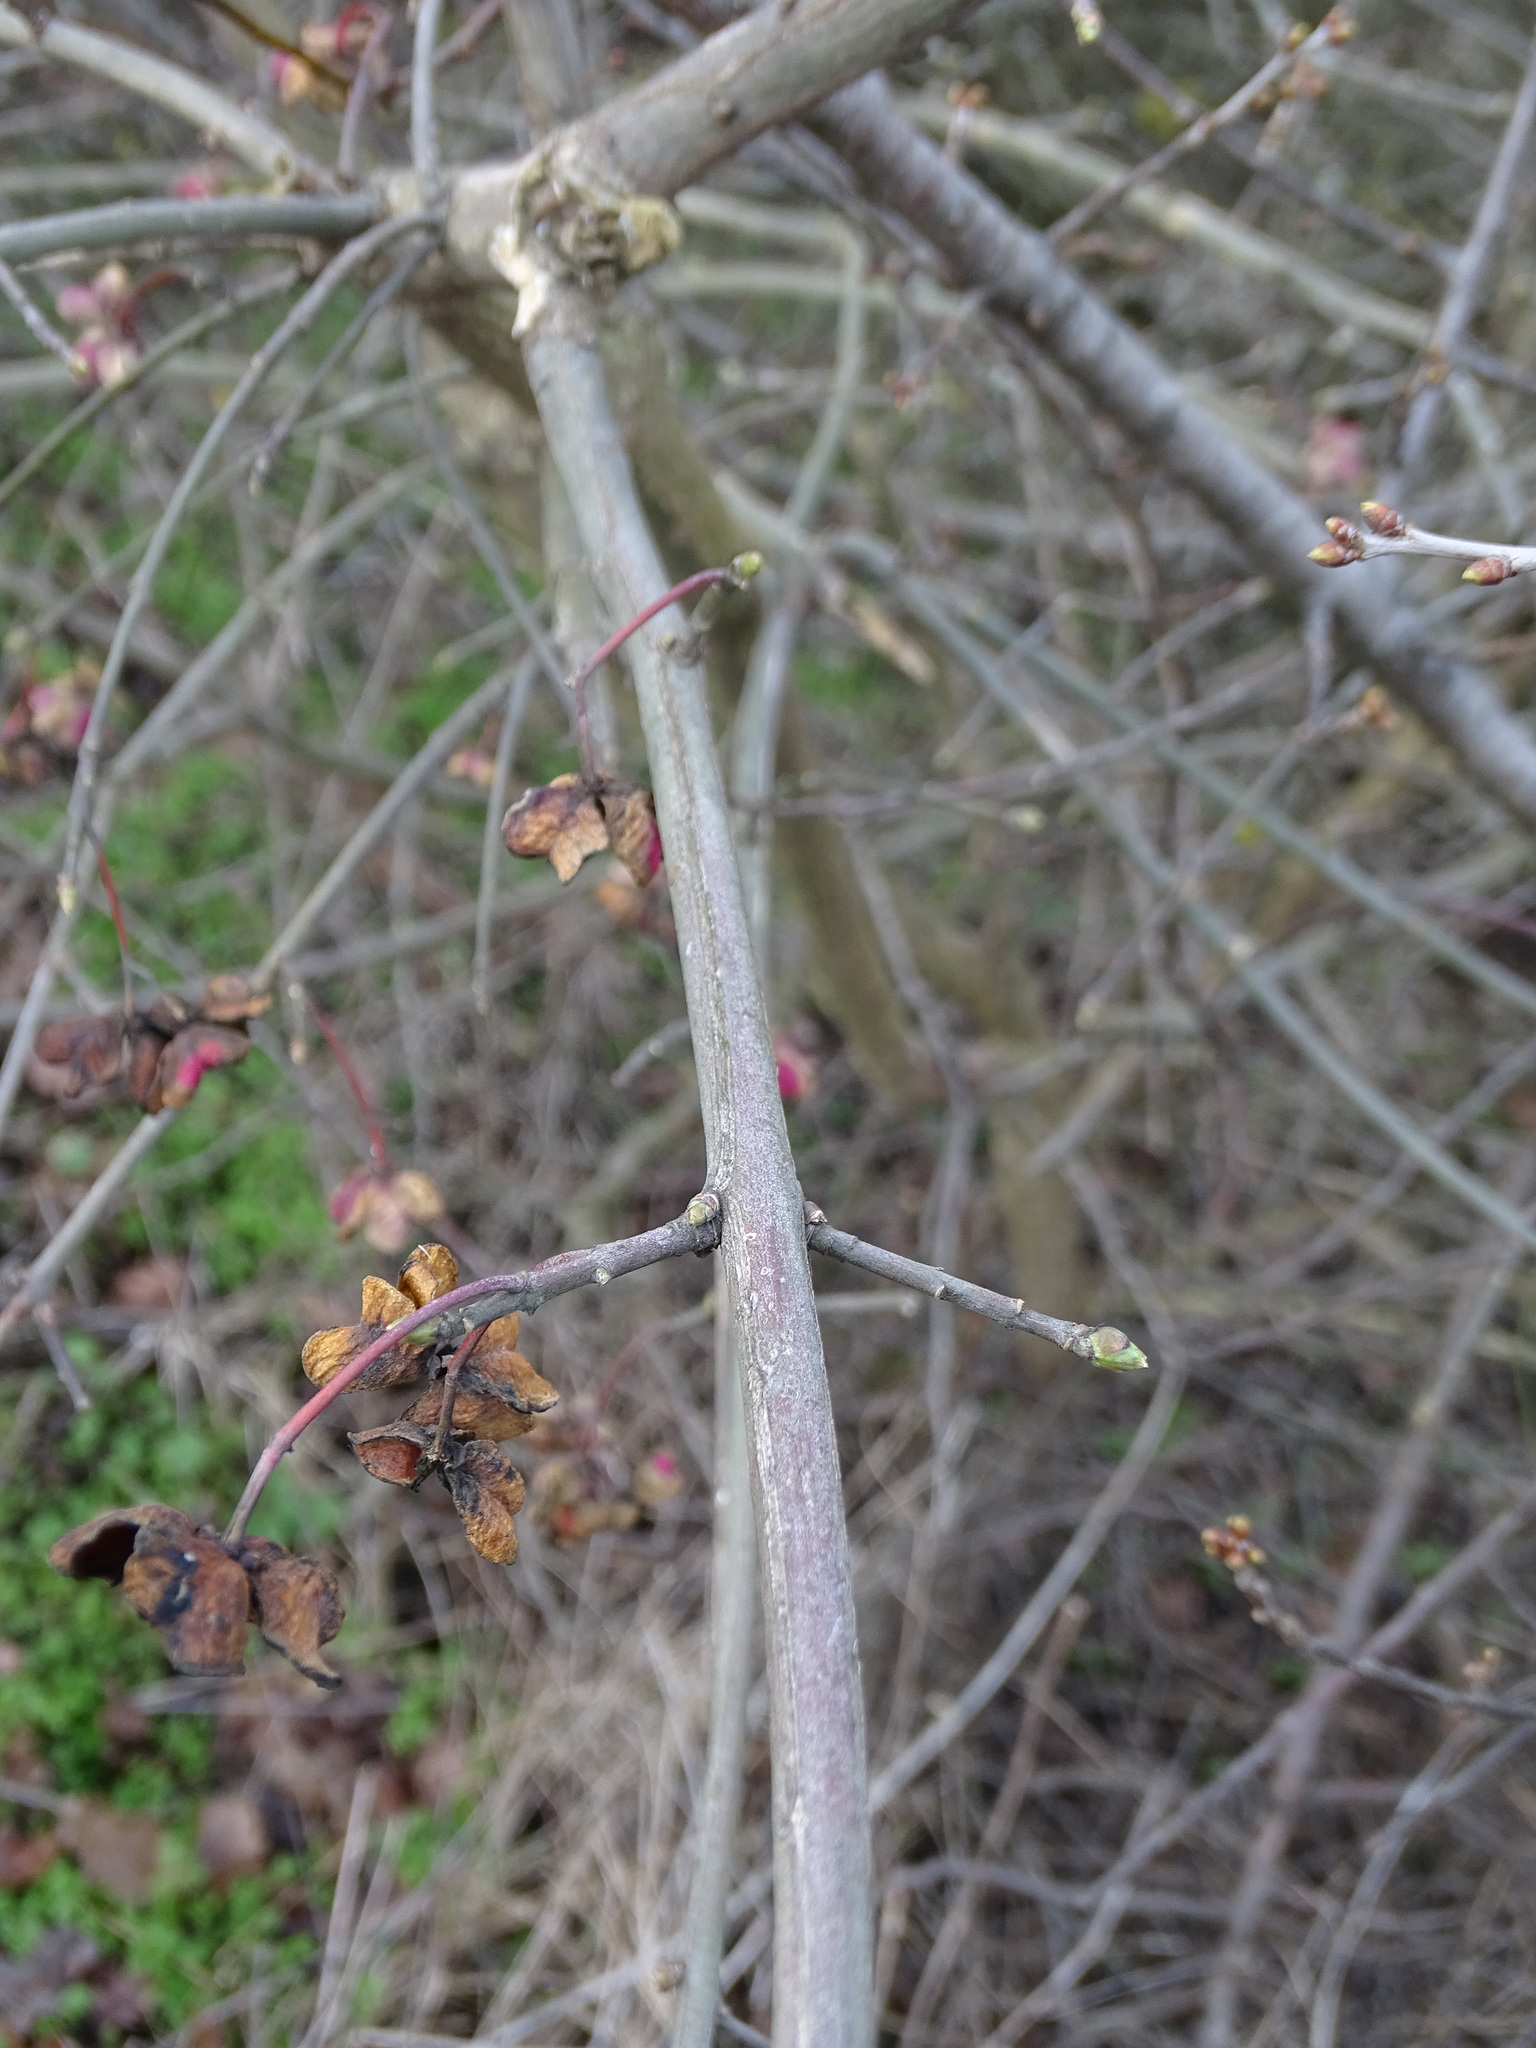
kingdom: Plantae
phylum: Tracheophyta
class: Magnoliopsida
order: Celastrales
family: Celastraceae
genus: Euonymus
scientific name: Euonymus europaeus
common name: Spindle
